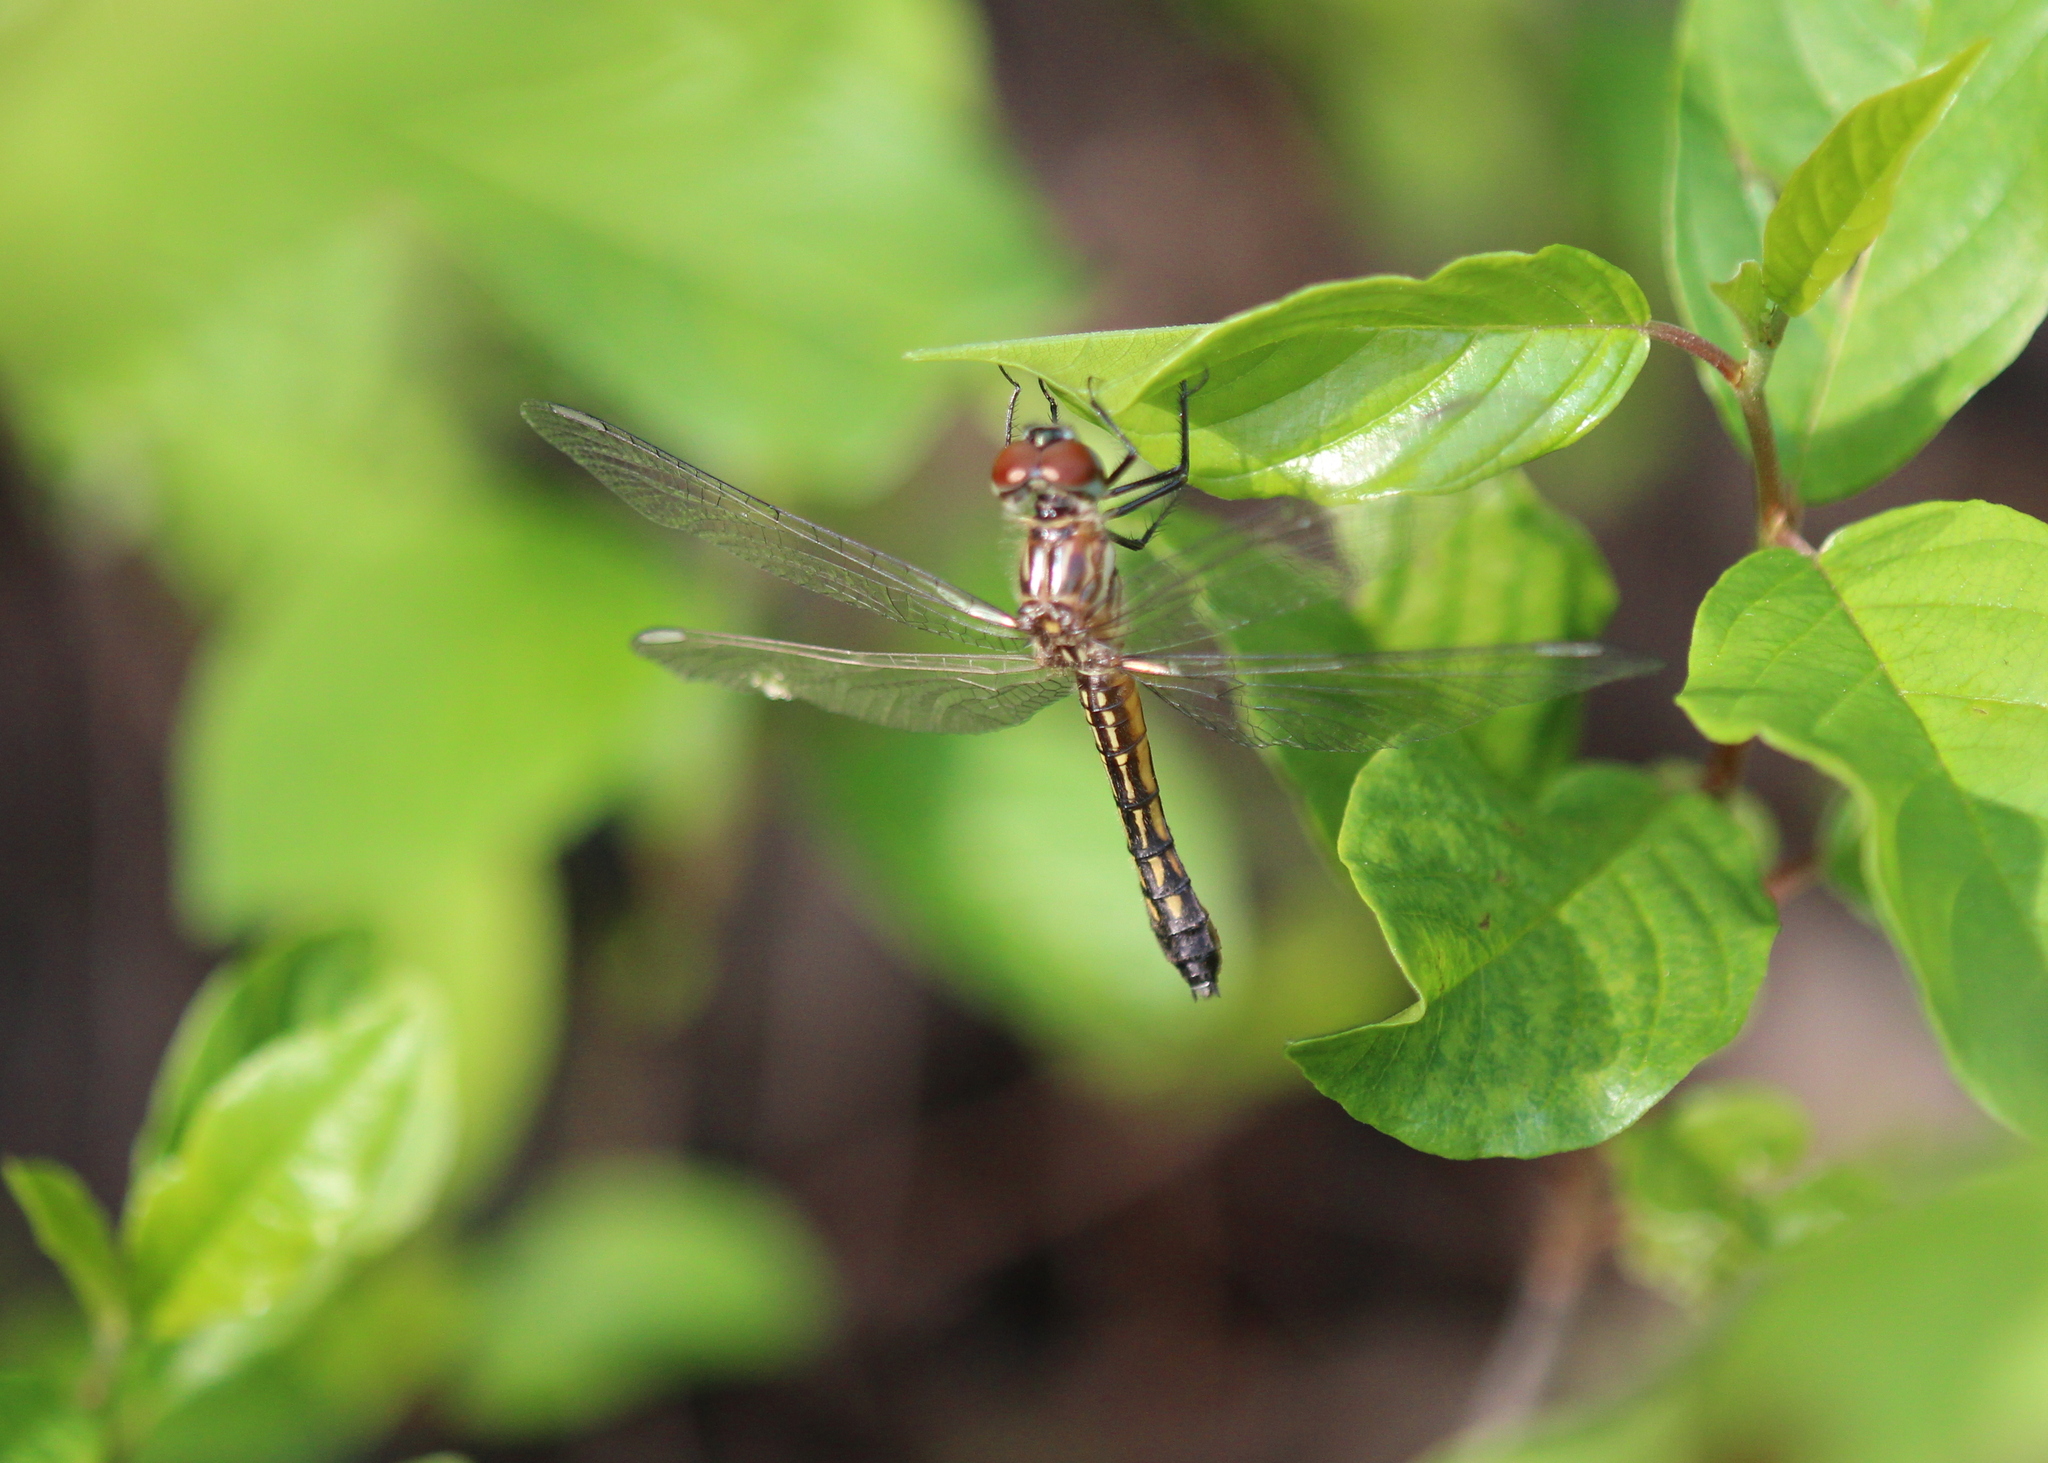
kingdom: Animalia
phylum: Arthropoda
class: Insecta
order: Odonata
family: Libellulidae
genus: Pachydiplax
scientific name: Pachydiplax longipennis
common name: Blue dasher
